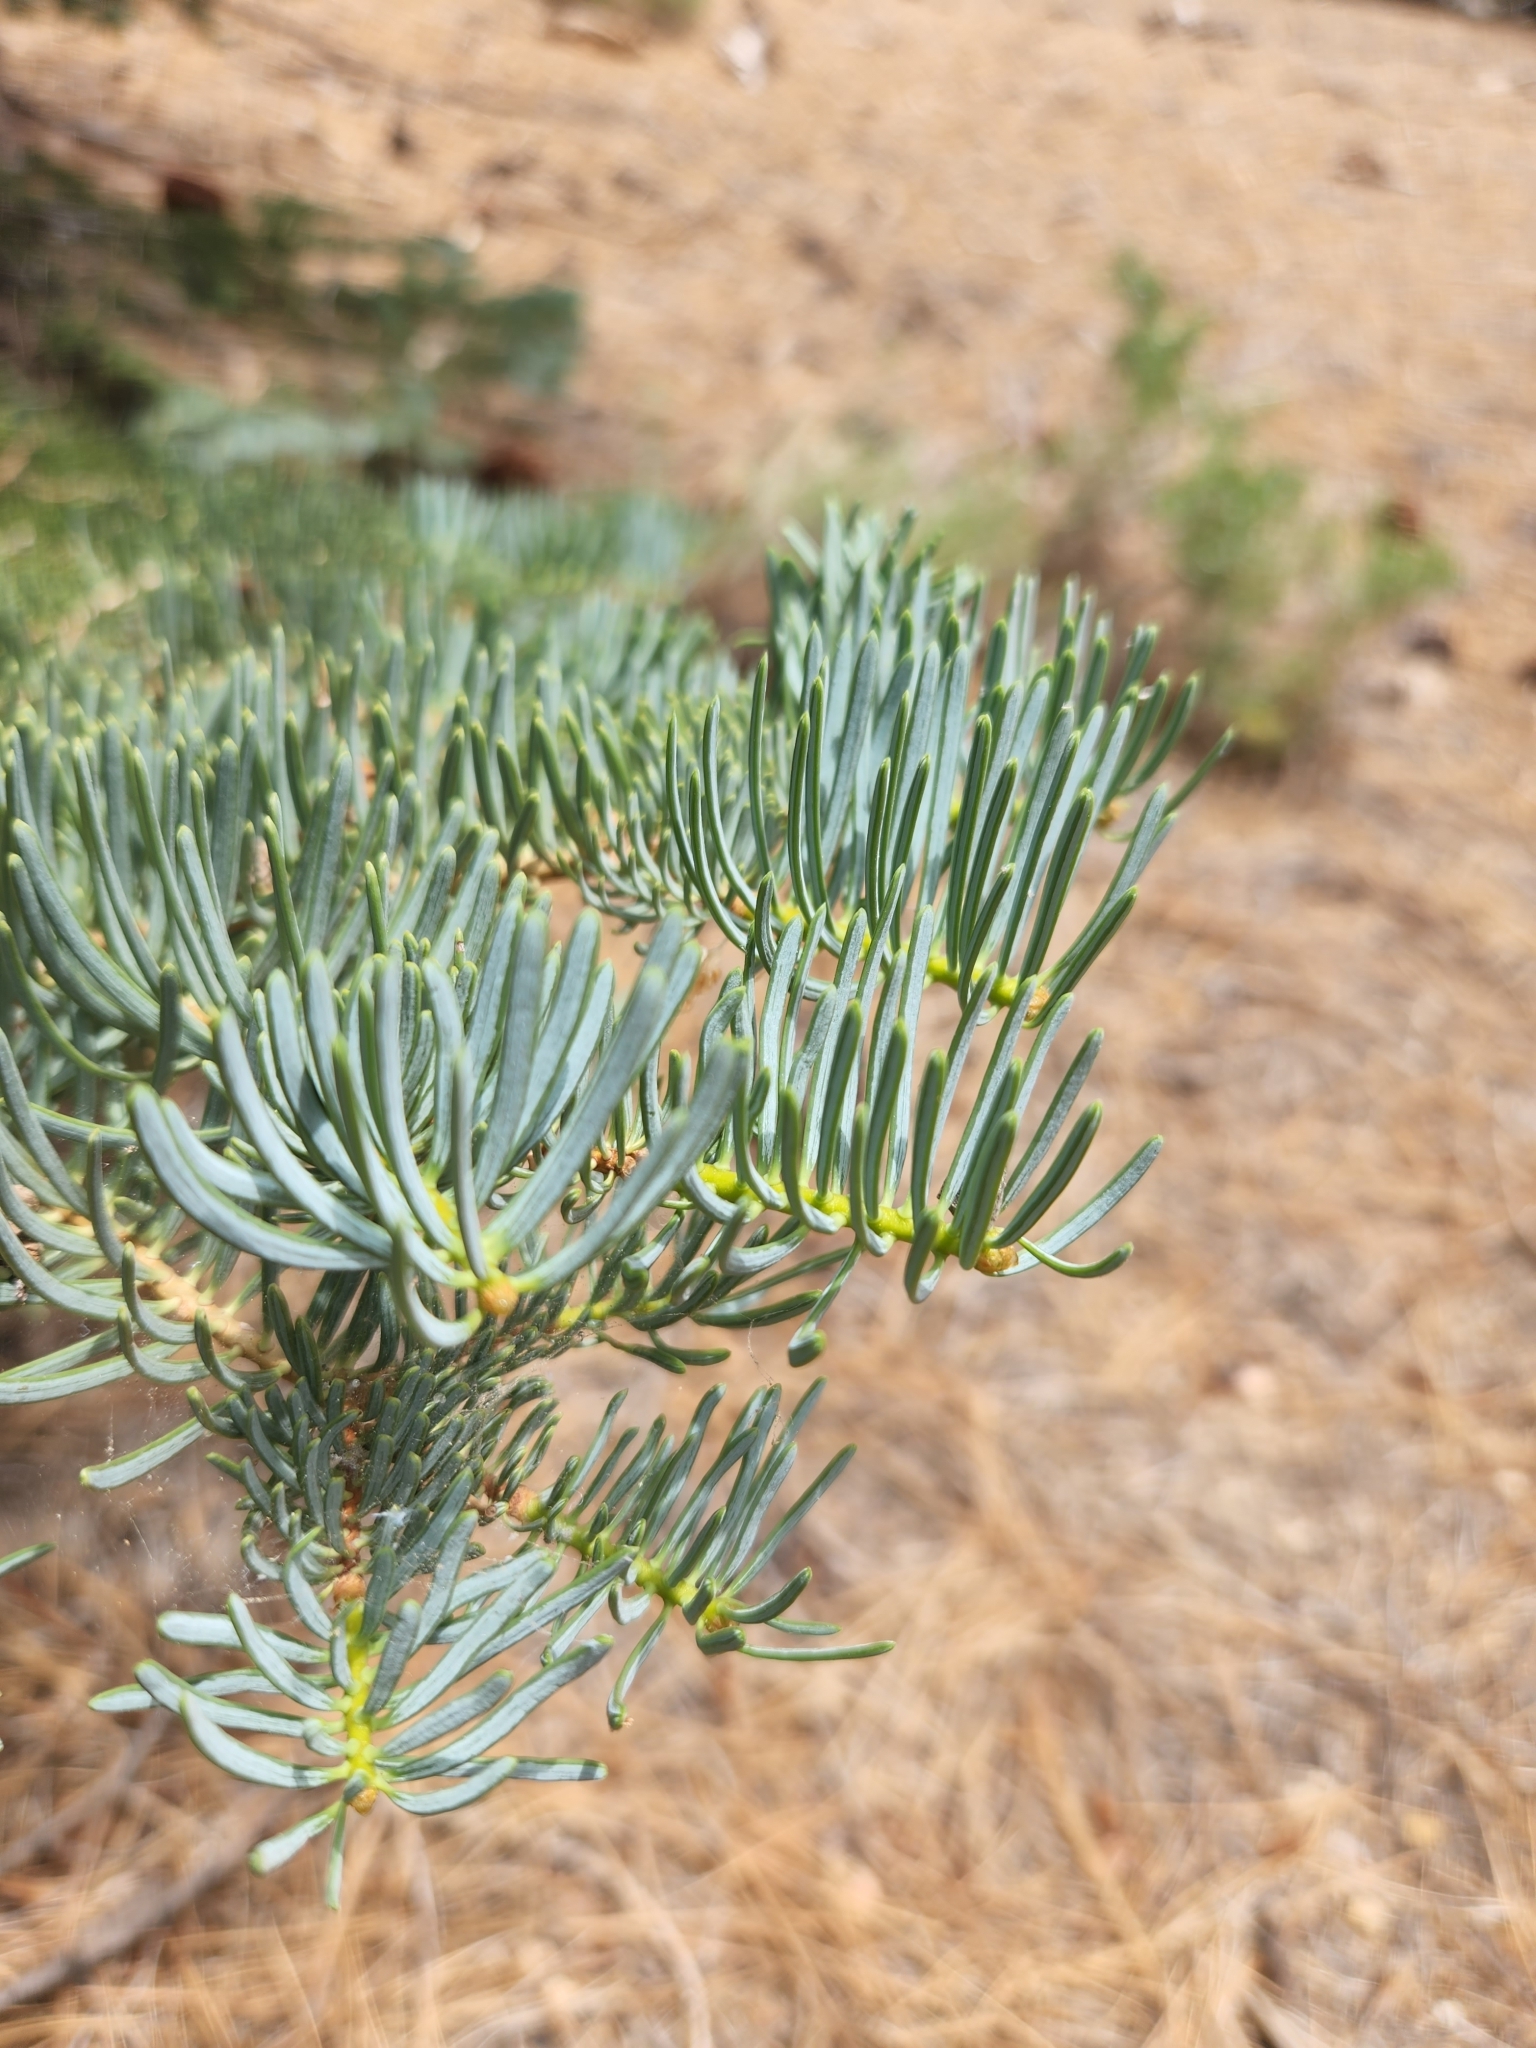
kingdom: Plantae
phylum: Tracheophyta
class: Pinopsida
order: Pinales
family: Pinaceae
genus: Abies
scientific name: Abies concolor
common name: Colorado fir
